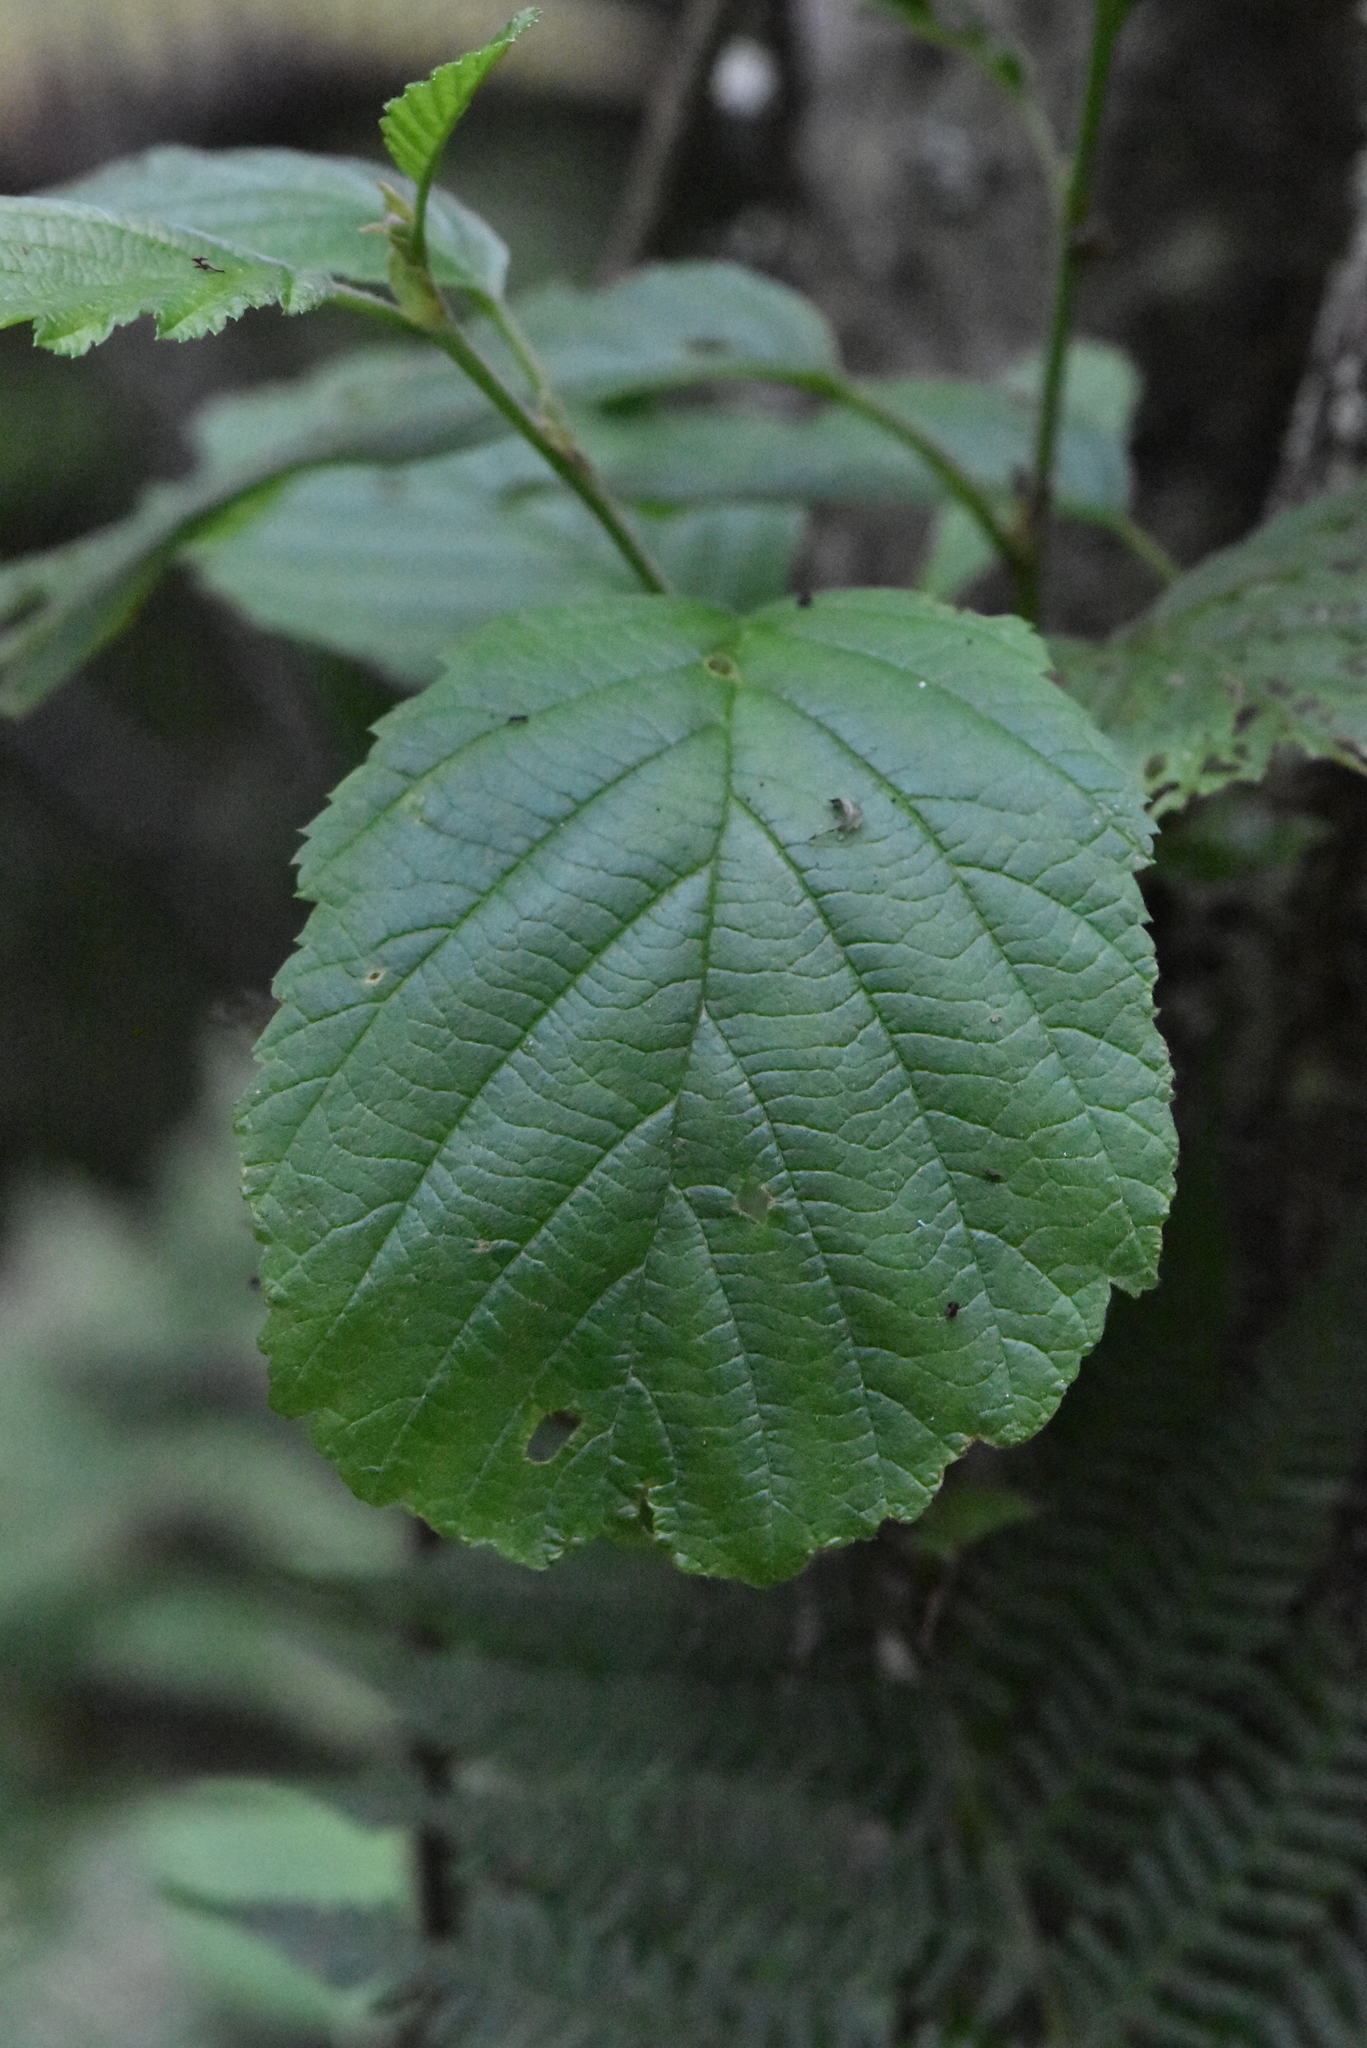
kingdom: Plantae
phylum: Tracheophyta
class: Magnoliopsida
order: Fagales
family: Betulaceae
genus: Alnus
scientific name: Alnus glutinosa
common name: Black alder
